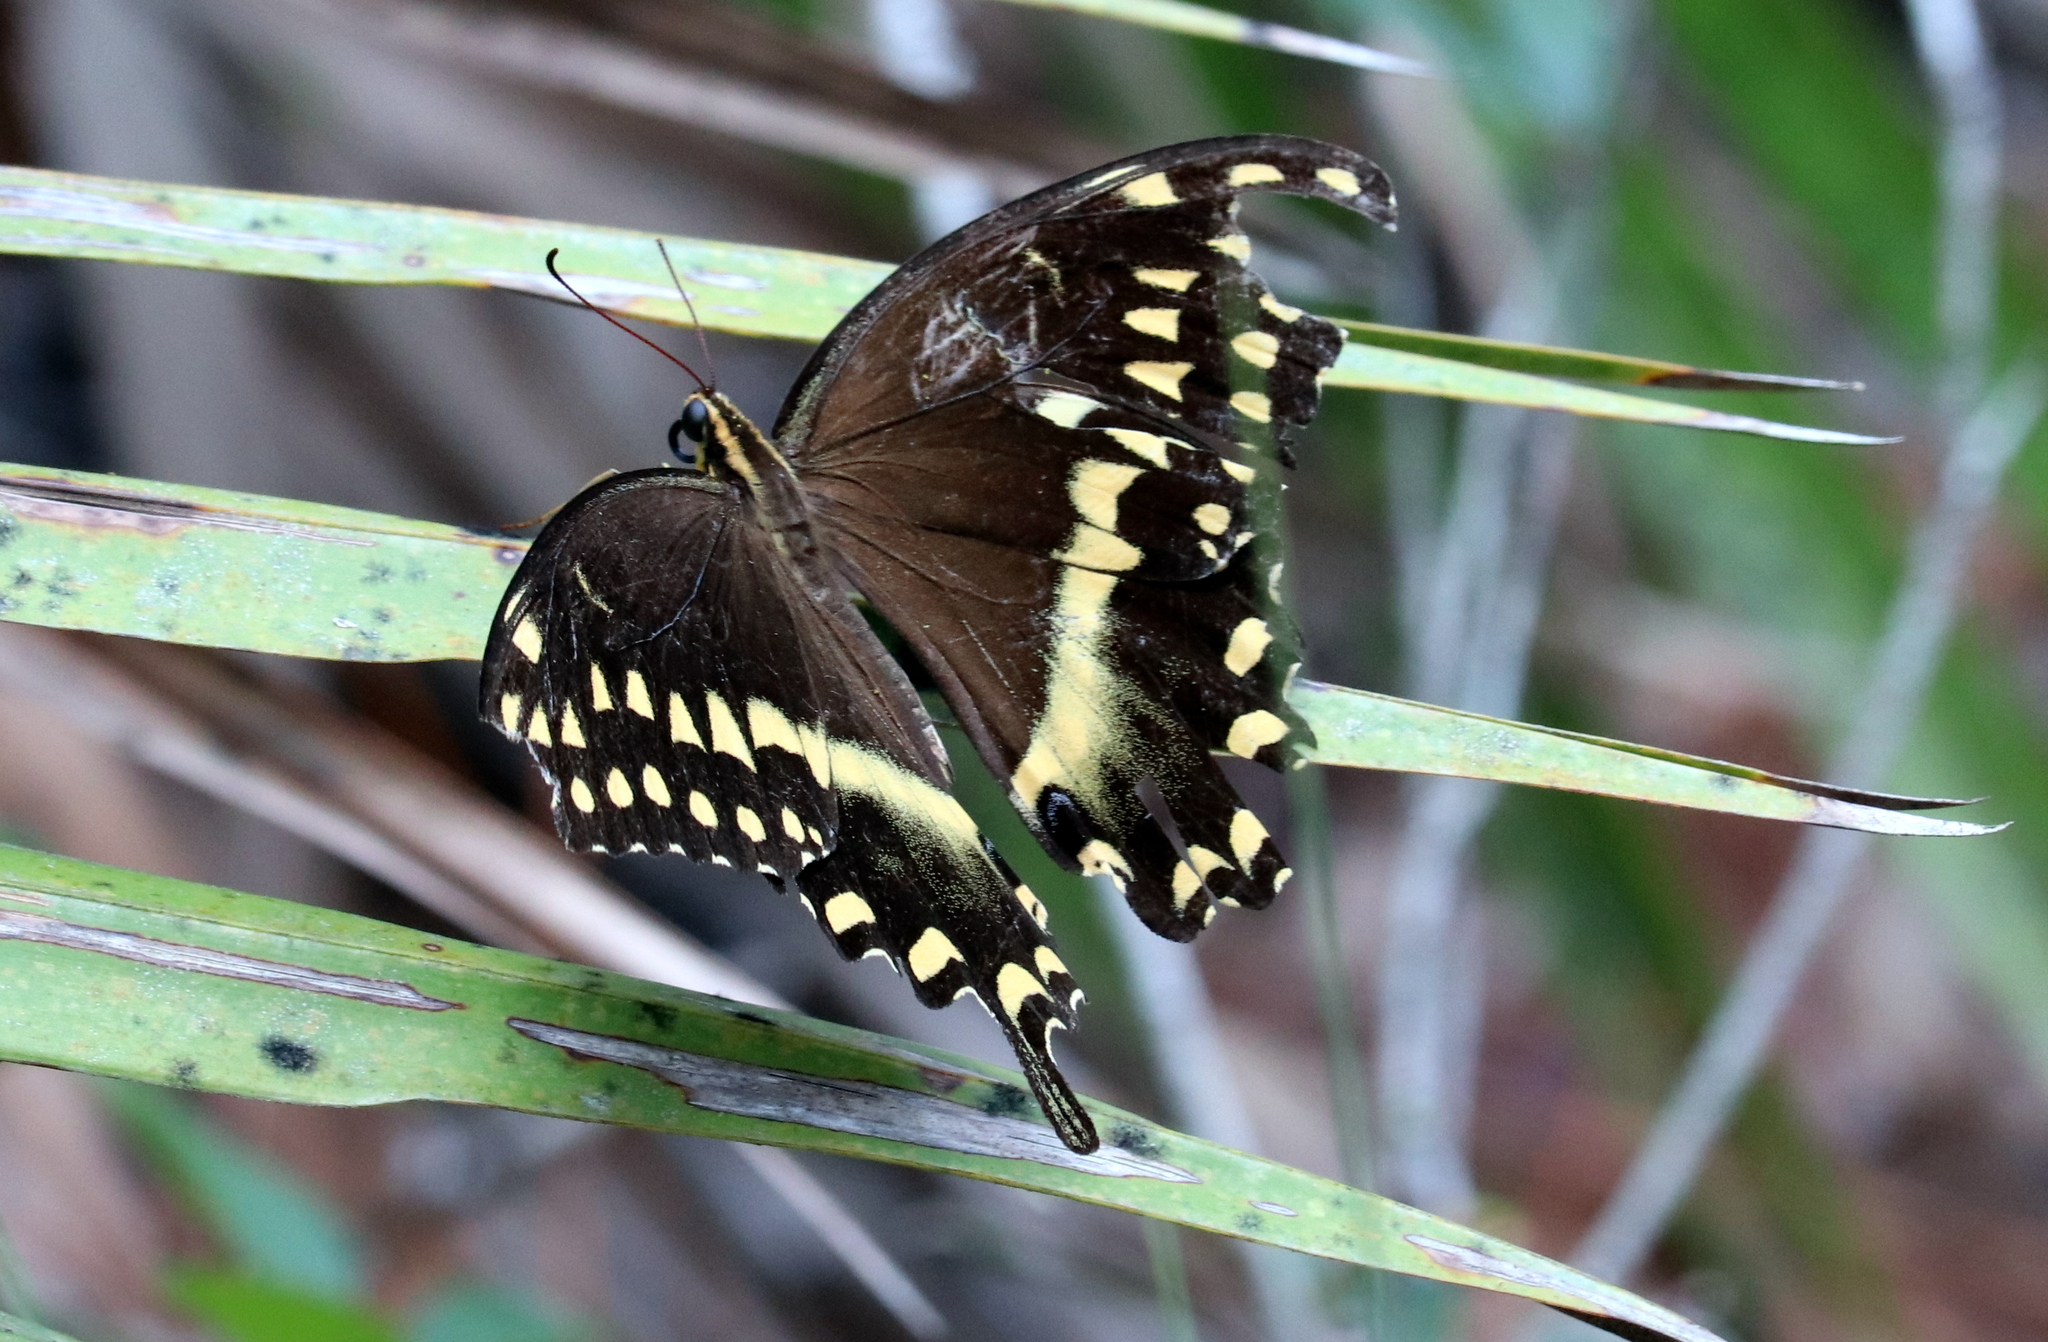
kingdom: Animalia
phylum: Arthropoda
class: Insecta
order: Lepidoptera
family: Papilionidae
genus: Papilio
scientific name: Papilio palamedes
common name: Palamedes swallowtail
